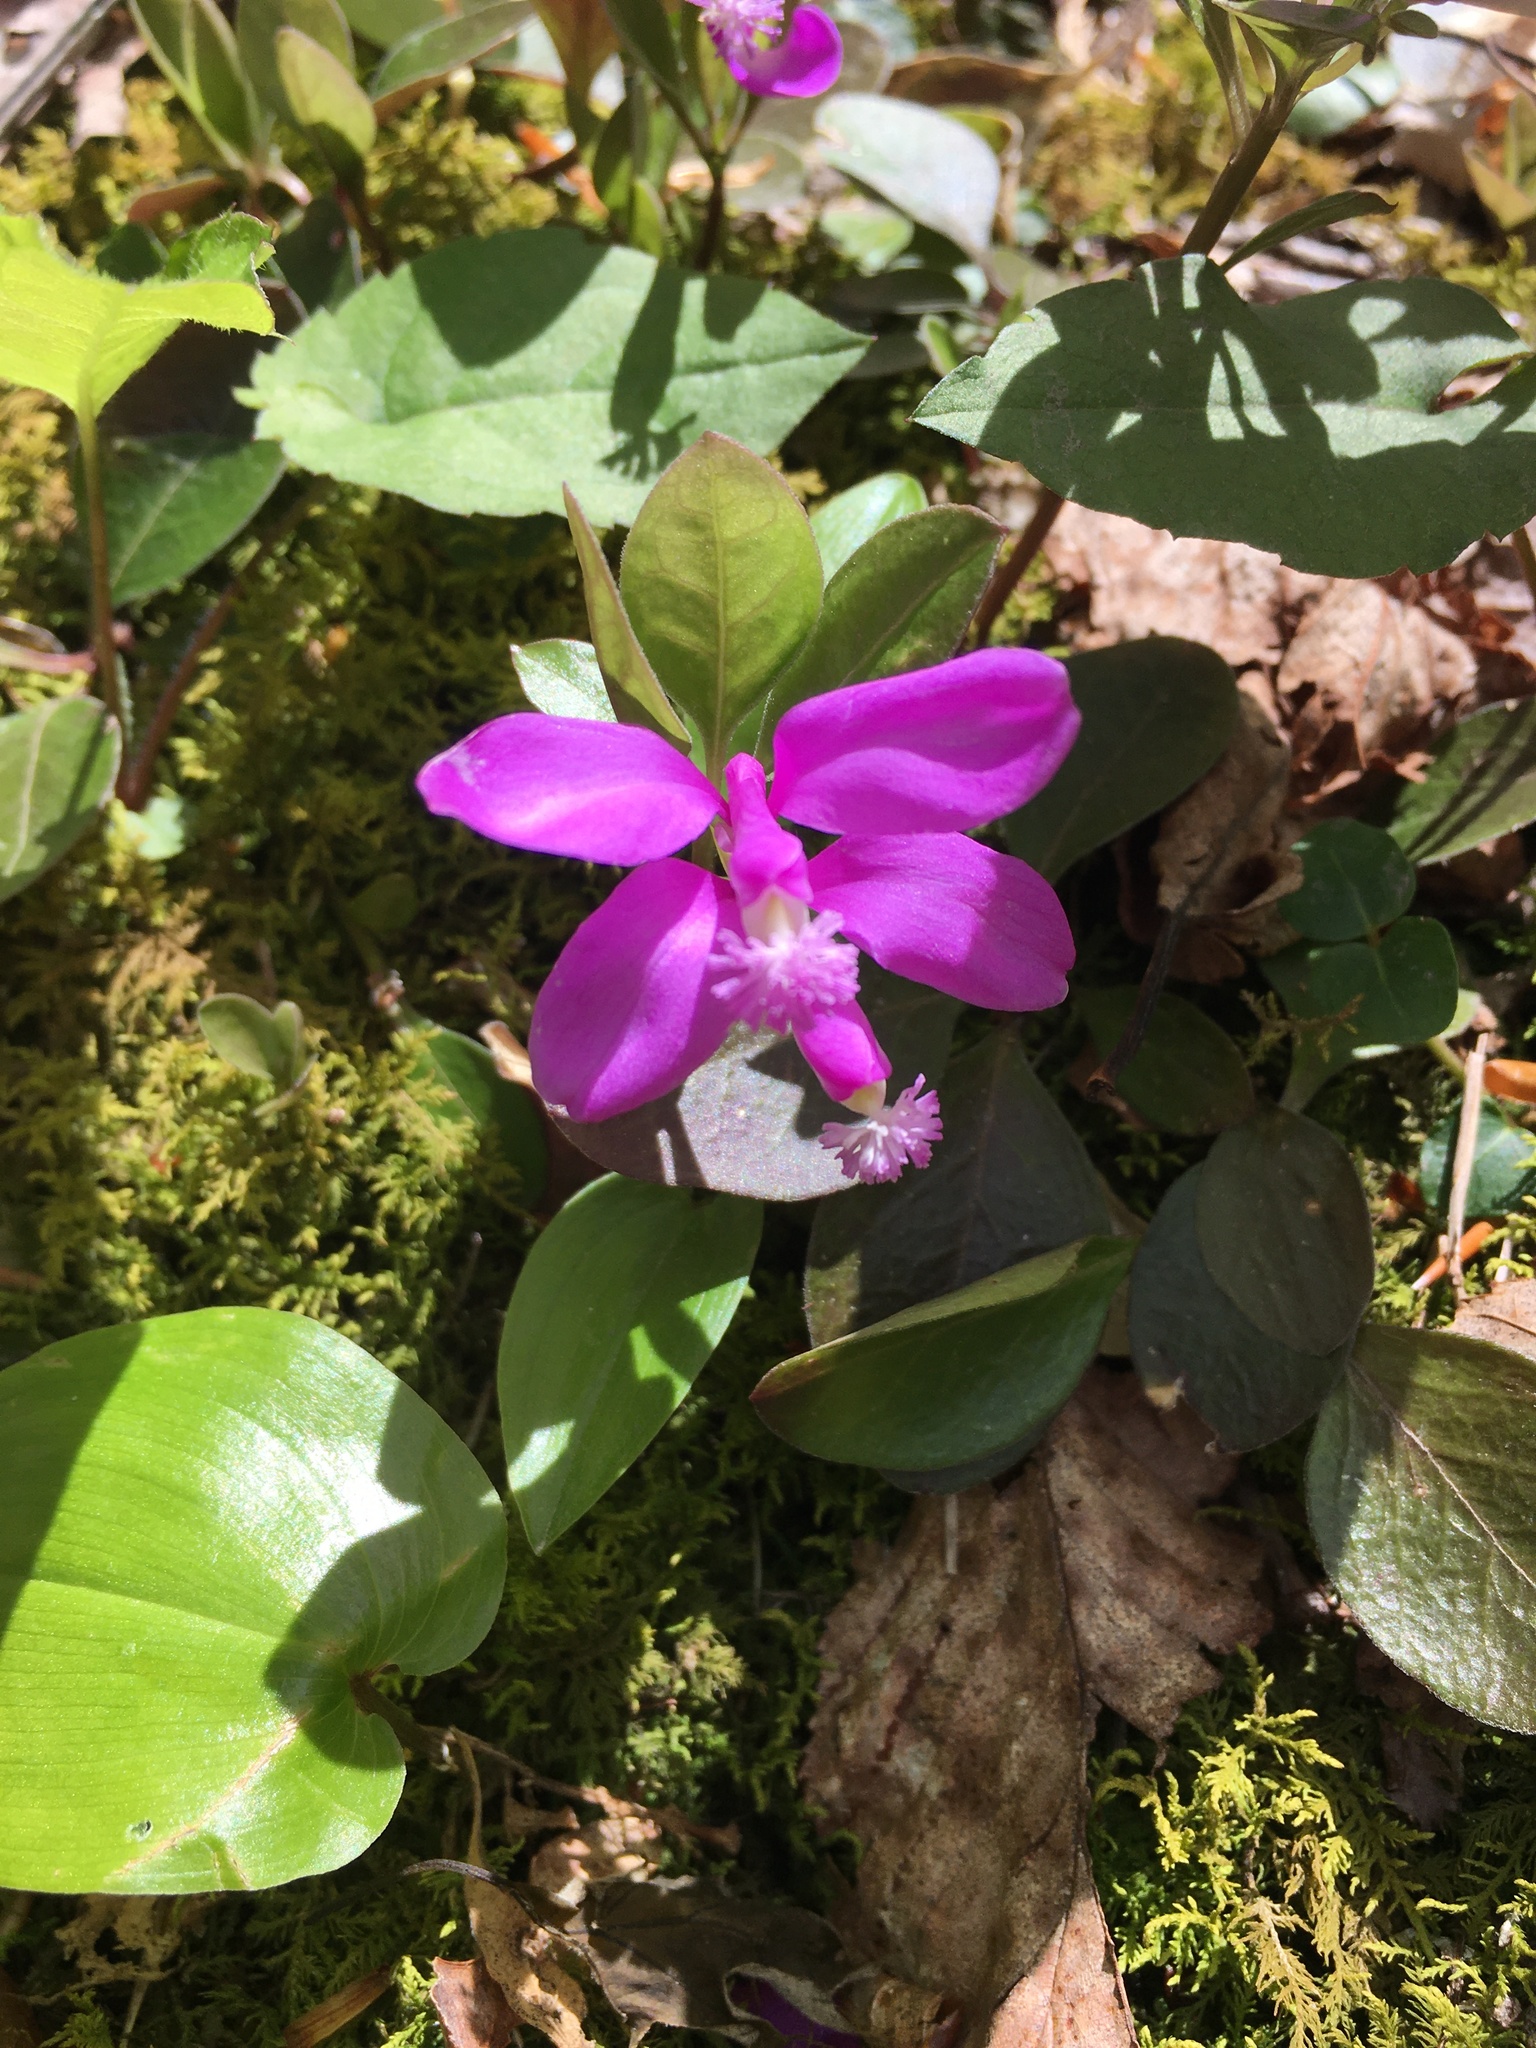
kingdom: Plantae
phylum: Tracheophyta
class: Magnoliopsida
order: Fabales
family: Polygalaceae
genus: Polygaloides
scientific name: Polygaloides paucifolia
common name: Bird-on-the-wing
